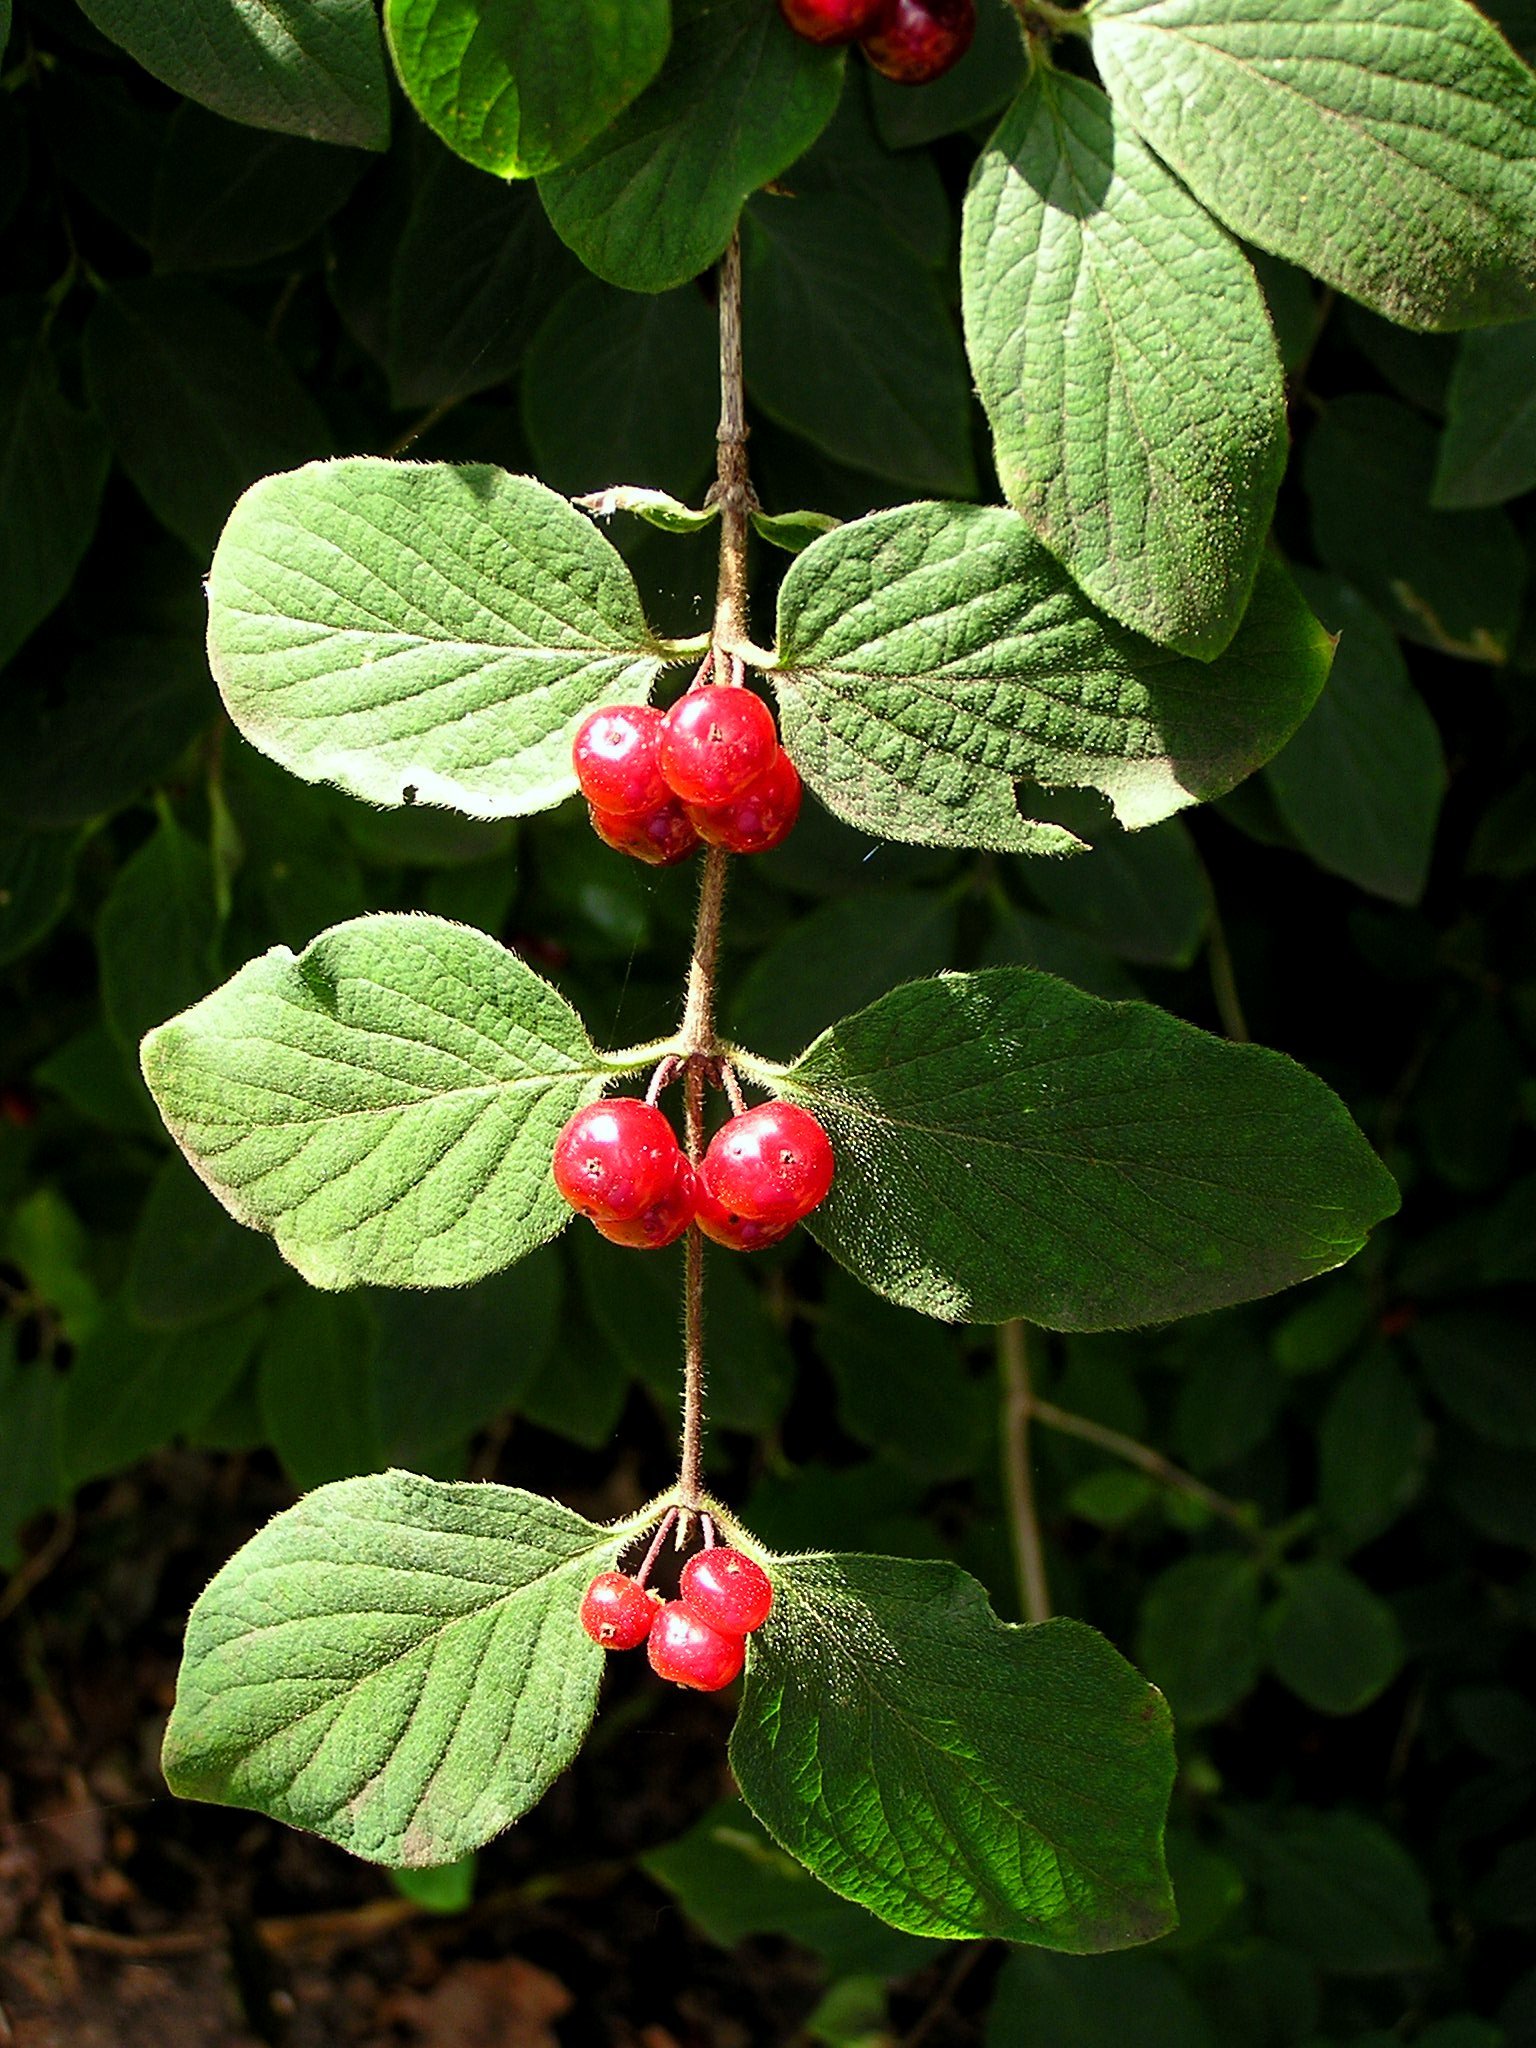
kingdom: Plantae
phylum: Tracheophyta
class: Magnoliopsida
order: Dipsacales
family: Caprifoliaceae
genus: Lonicera
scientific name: Lonicera xylosteum
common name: Fly honeysuckle
